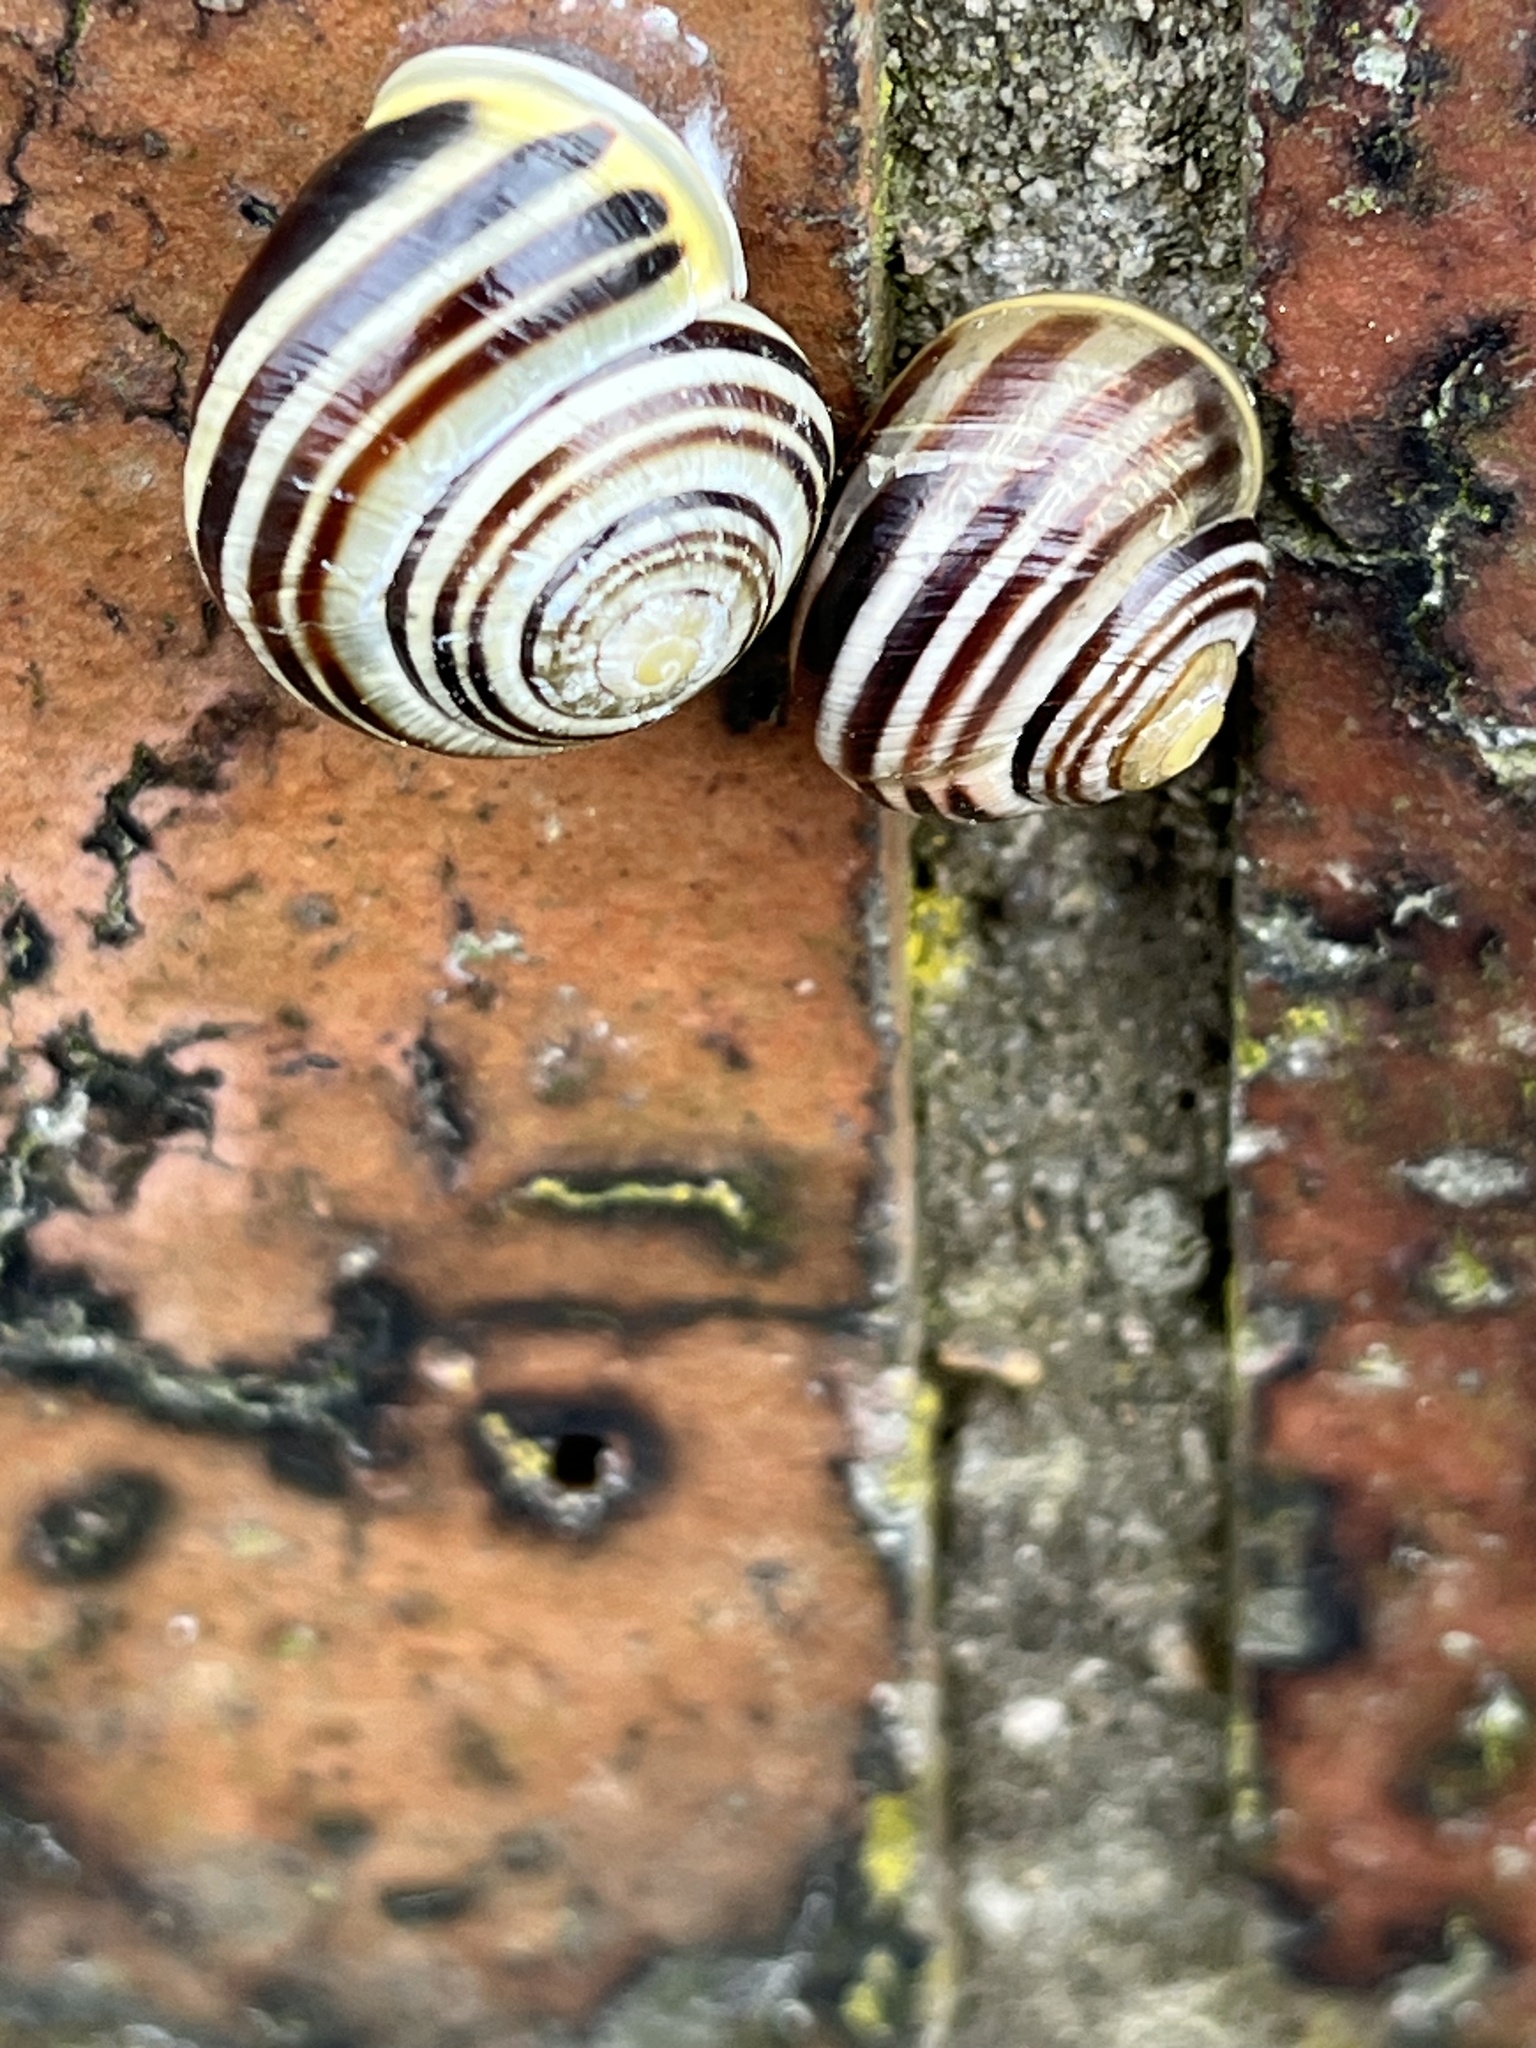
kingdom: Animalia
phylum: Mollusca
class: Gastropoda
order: Stylommatophora
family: Helicidae
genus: Cepaea
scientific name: Cepaea hortensis
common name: White-lip gardensnail
